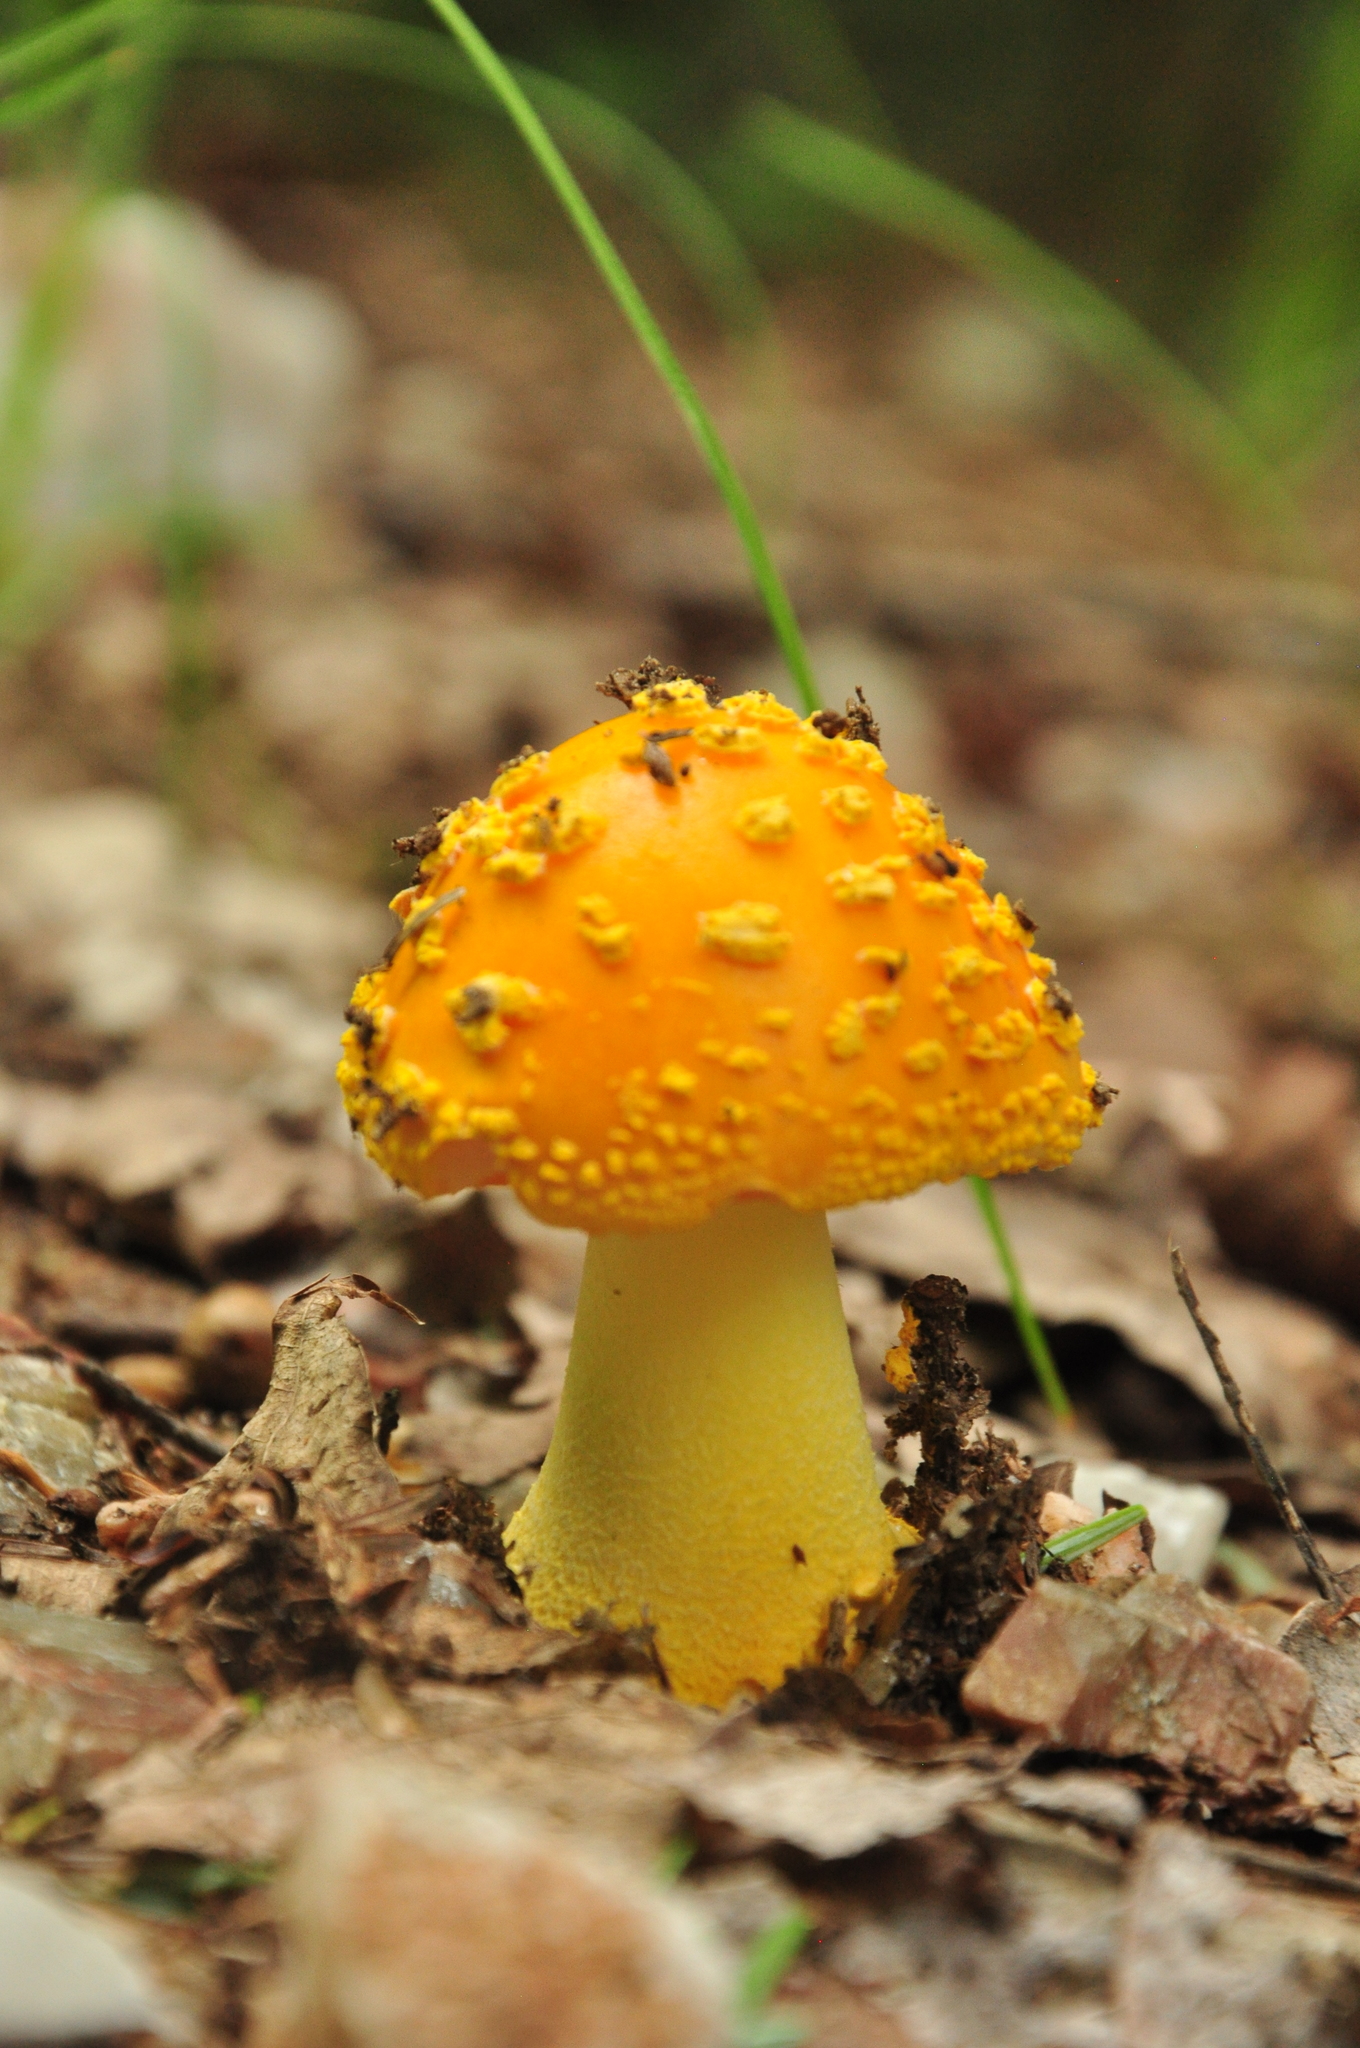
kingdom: Fungi
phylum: Basidiomycota
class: Agaricomycetes
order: Agaricales
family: Amanitaceae
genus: Amanita
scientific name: Amanita flavoconia
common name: Yellow patches
